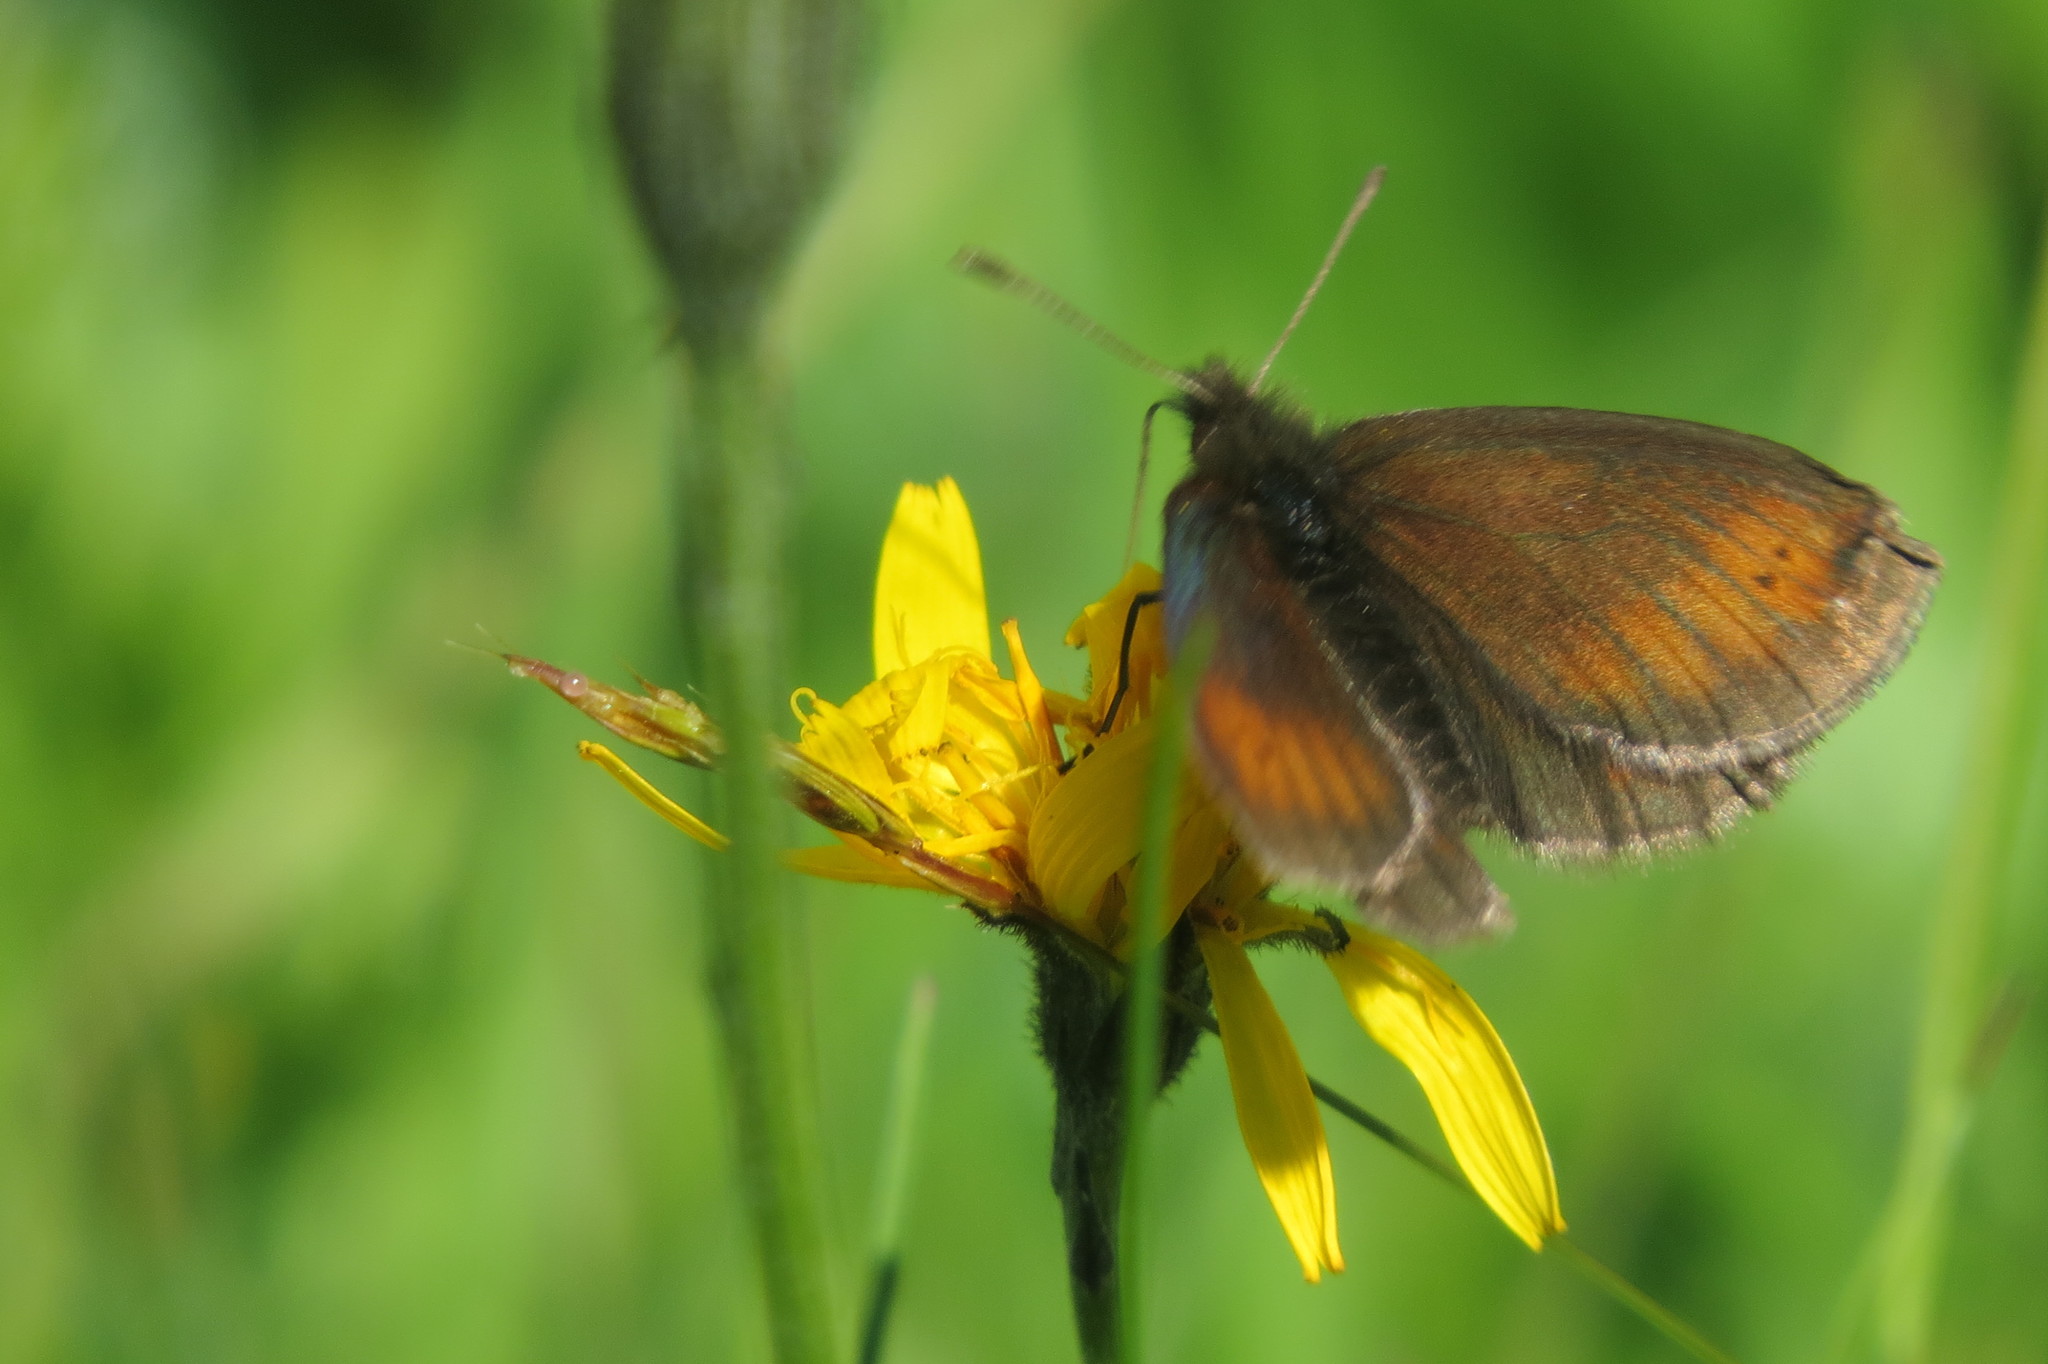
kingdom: Animalia
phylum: Arthropoda
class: Insecta
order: Lepidoptera
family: Nymphalidae
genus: Erebia
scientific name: Erebia epiphron
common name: Mountain ringlet
